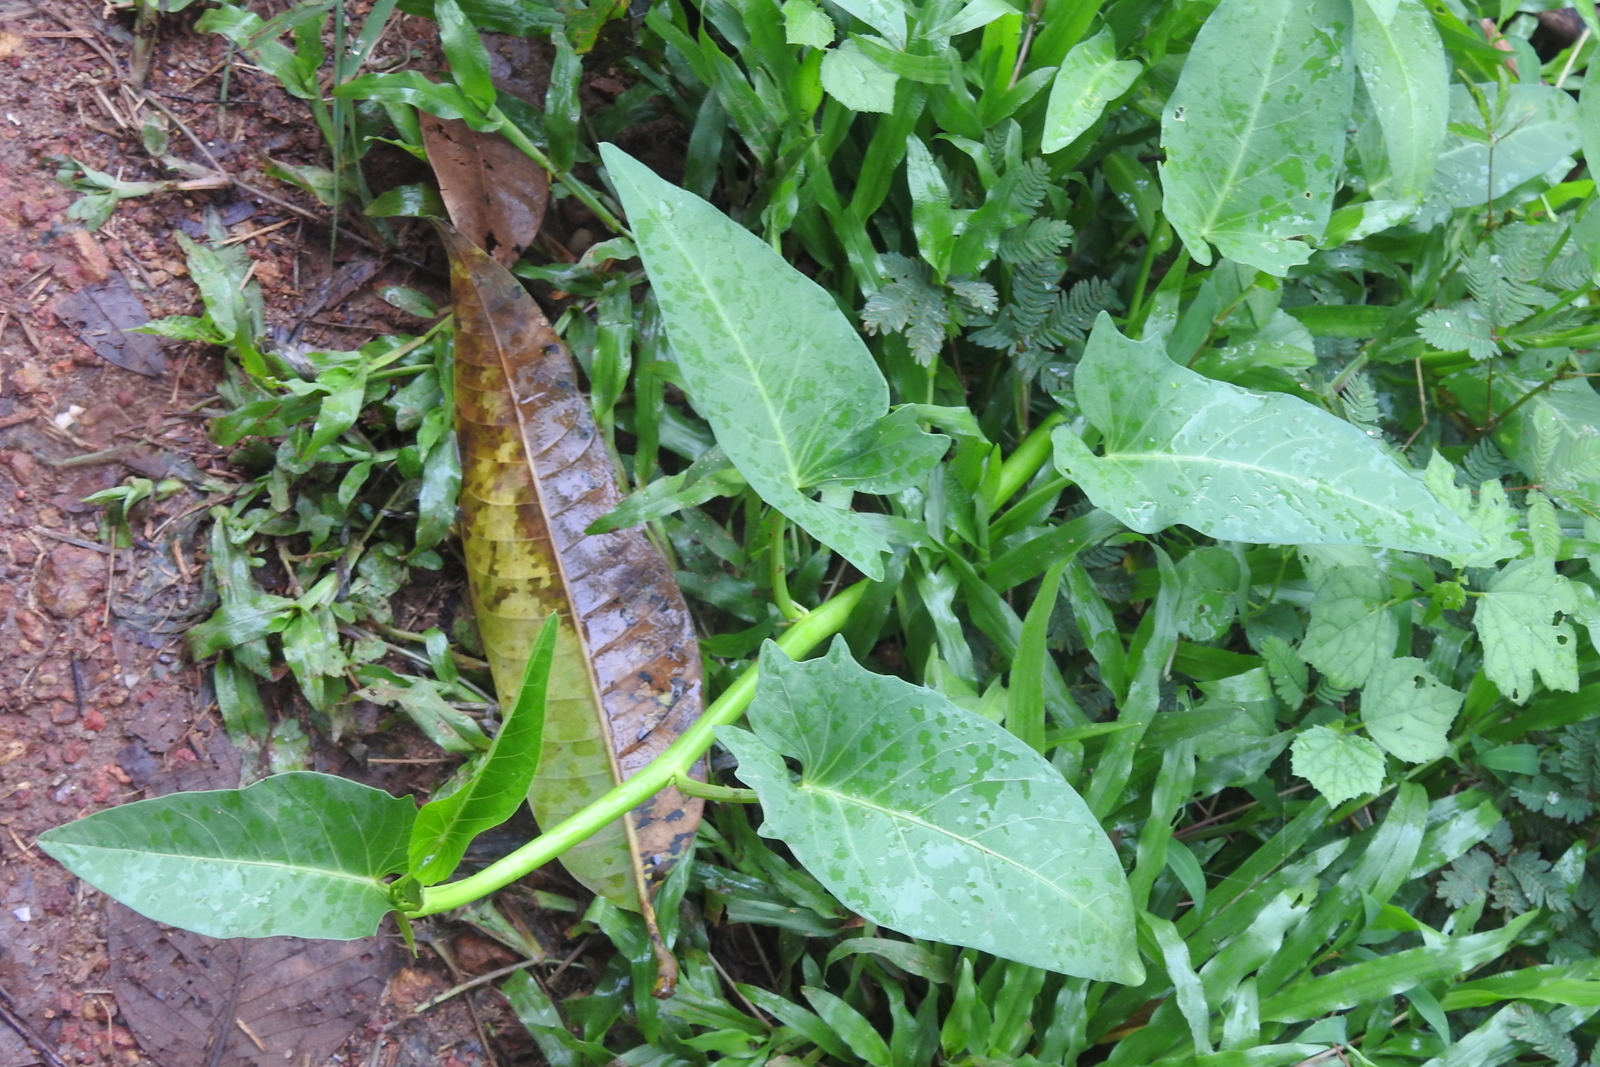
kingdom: Plantae
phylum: Tracheophyta
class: Magnoliopsida
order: Solanales
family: Convolvulaceae
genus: Ipomoea
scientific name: Ipomoea aquatica
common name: Swamp morning-glory
